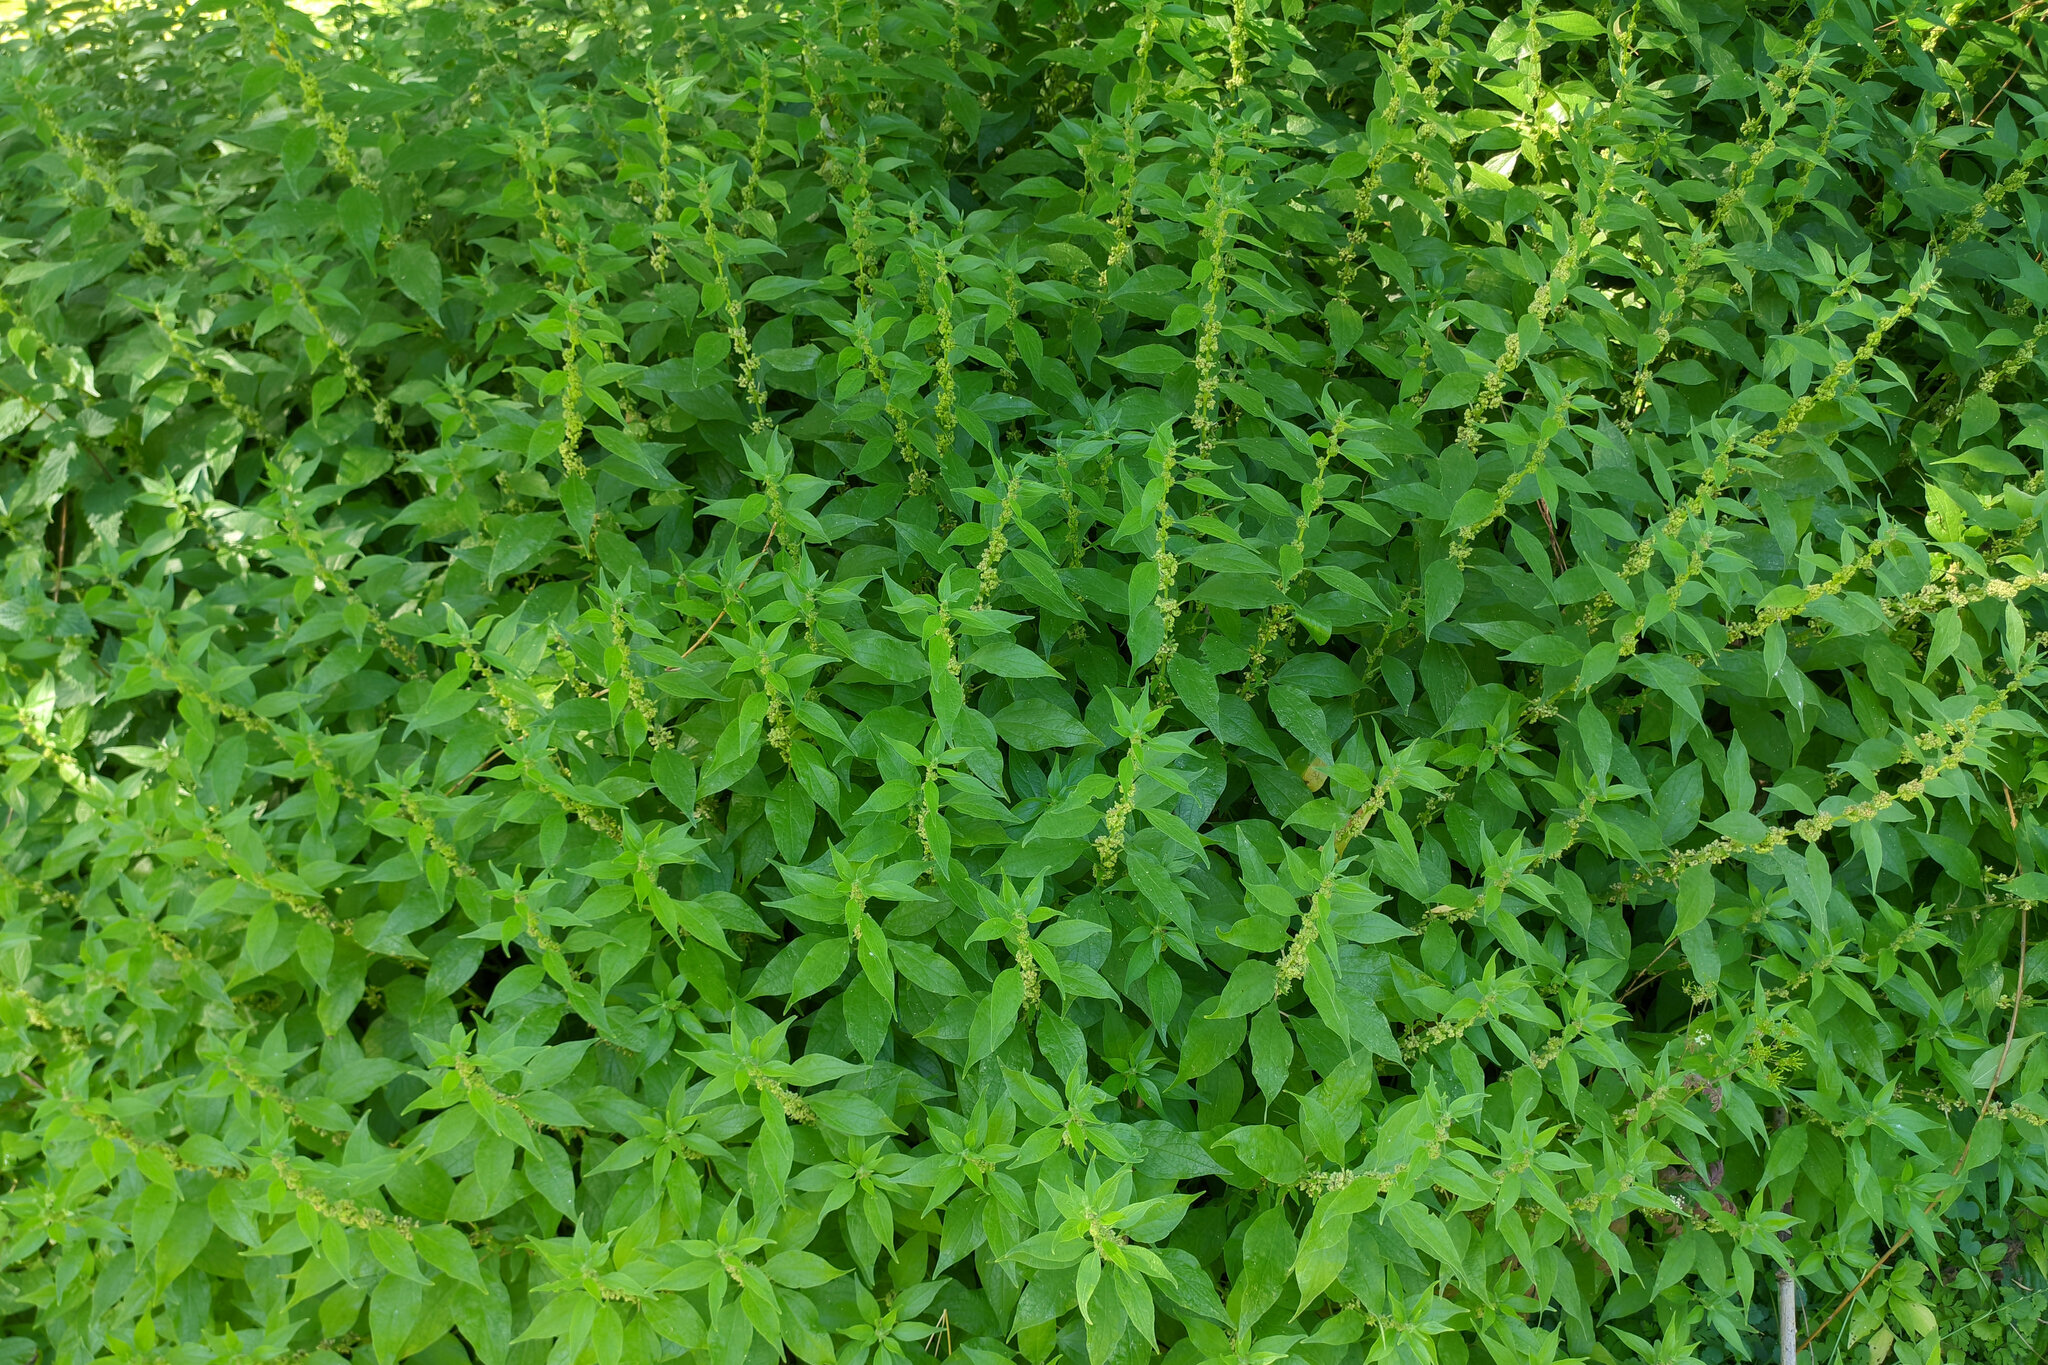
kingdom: Plantae
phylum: Tracheophyta
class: Magnoliopsida
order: Rosales
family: Urticaceae
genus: Parietaria
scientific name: Parietaria officinalis
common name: Eastern pellitory-of-the-wall
